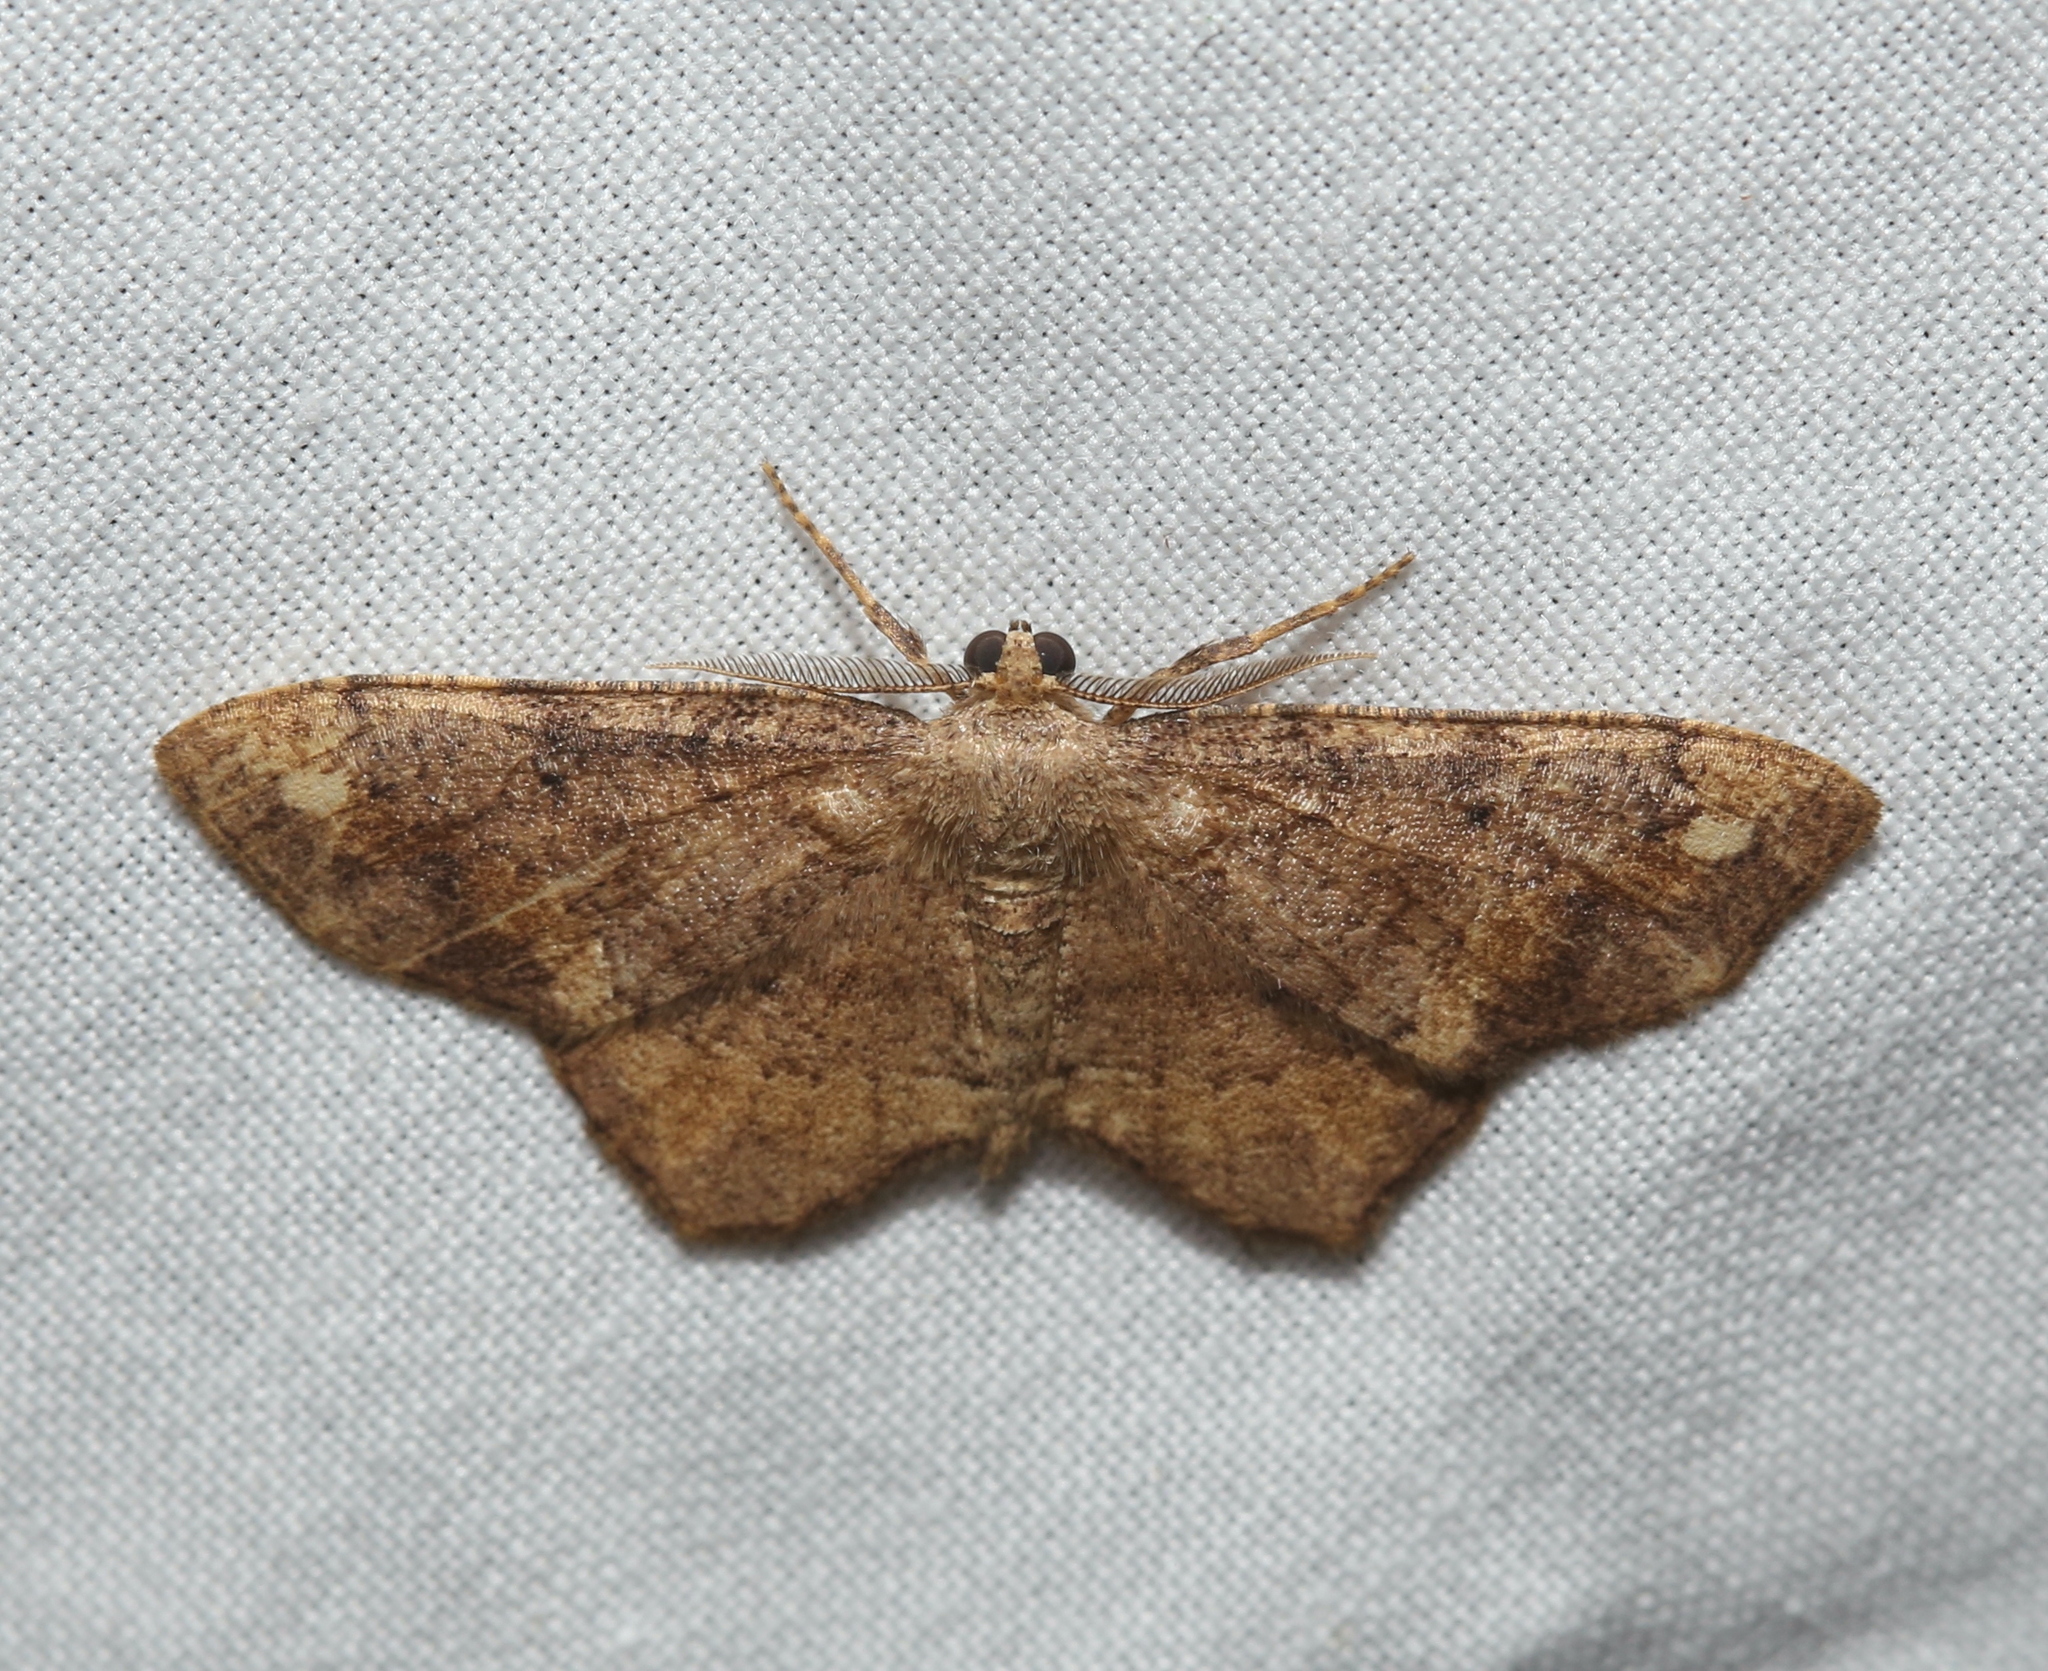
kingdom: Animalia
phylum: Arthropoda
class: Insecta
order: Lepidoptera
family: Geometridae
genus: Hypagyrtis
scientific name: Hypagyrtis unipunctata
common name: One-spotted variant
